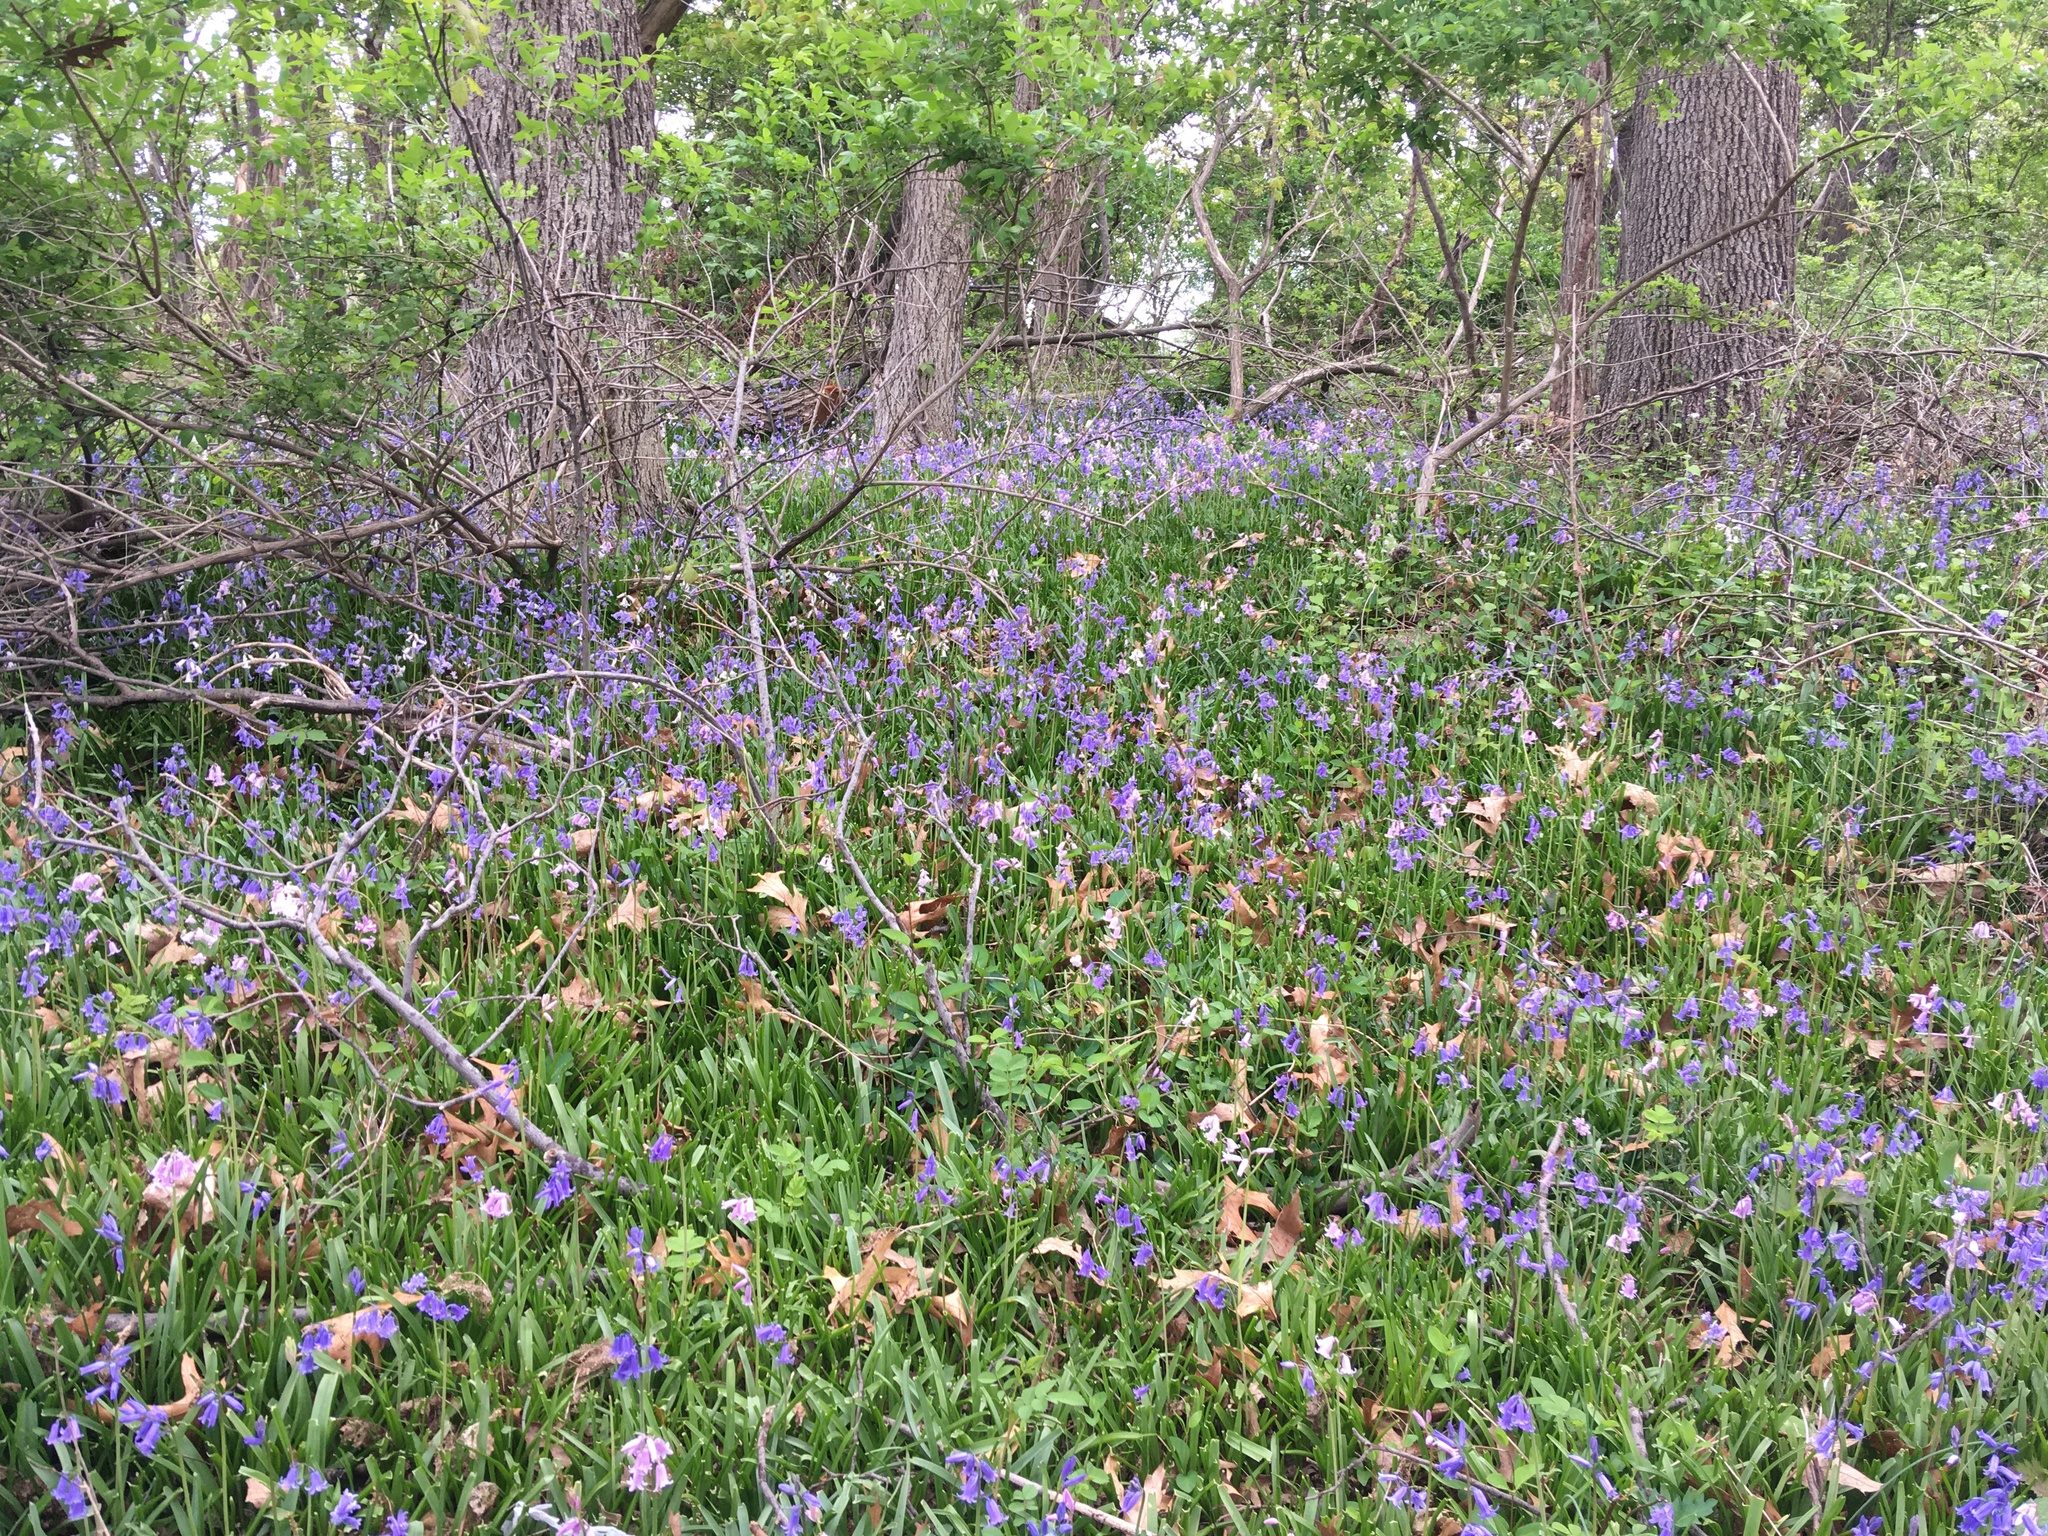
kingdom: Plantae
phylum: Tracheophyta
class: Liliopsida
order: Asparagales
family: Asparagaceae
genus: Hyacinthoides
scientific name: Hyacinthoides massartiana
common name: Hyacinthoides
